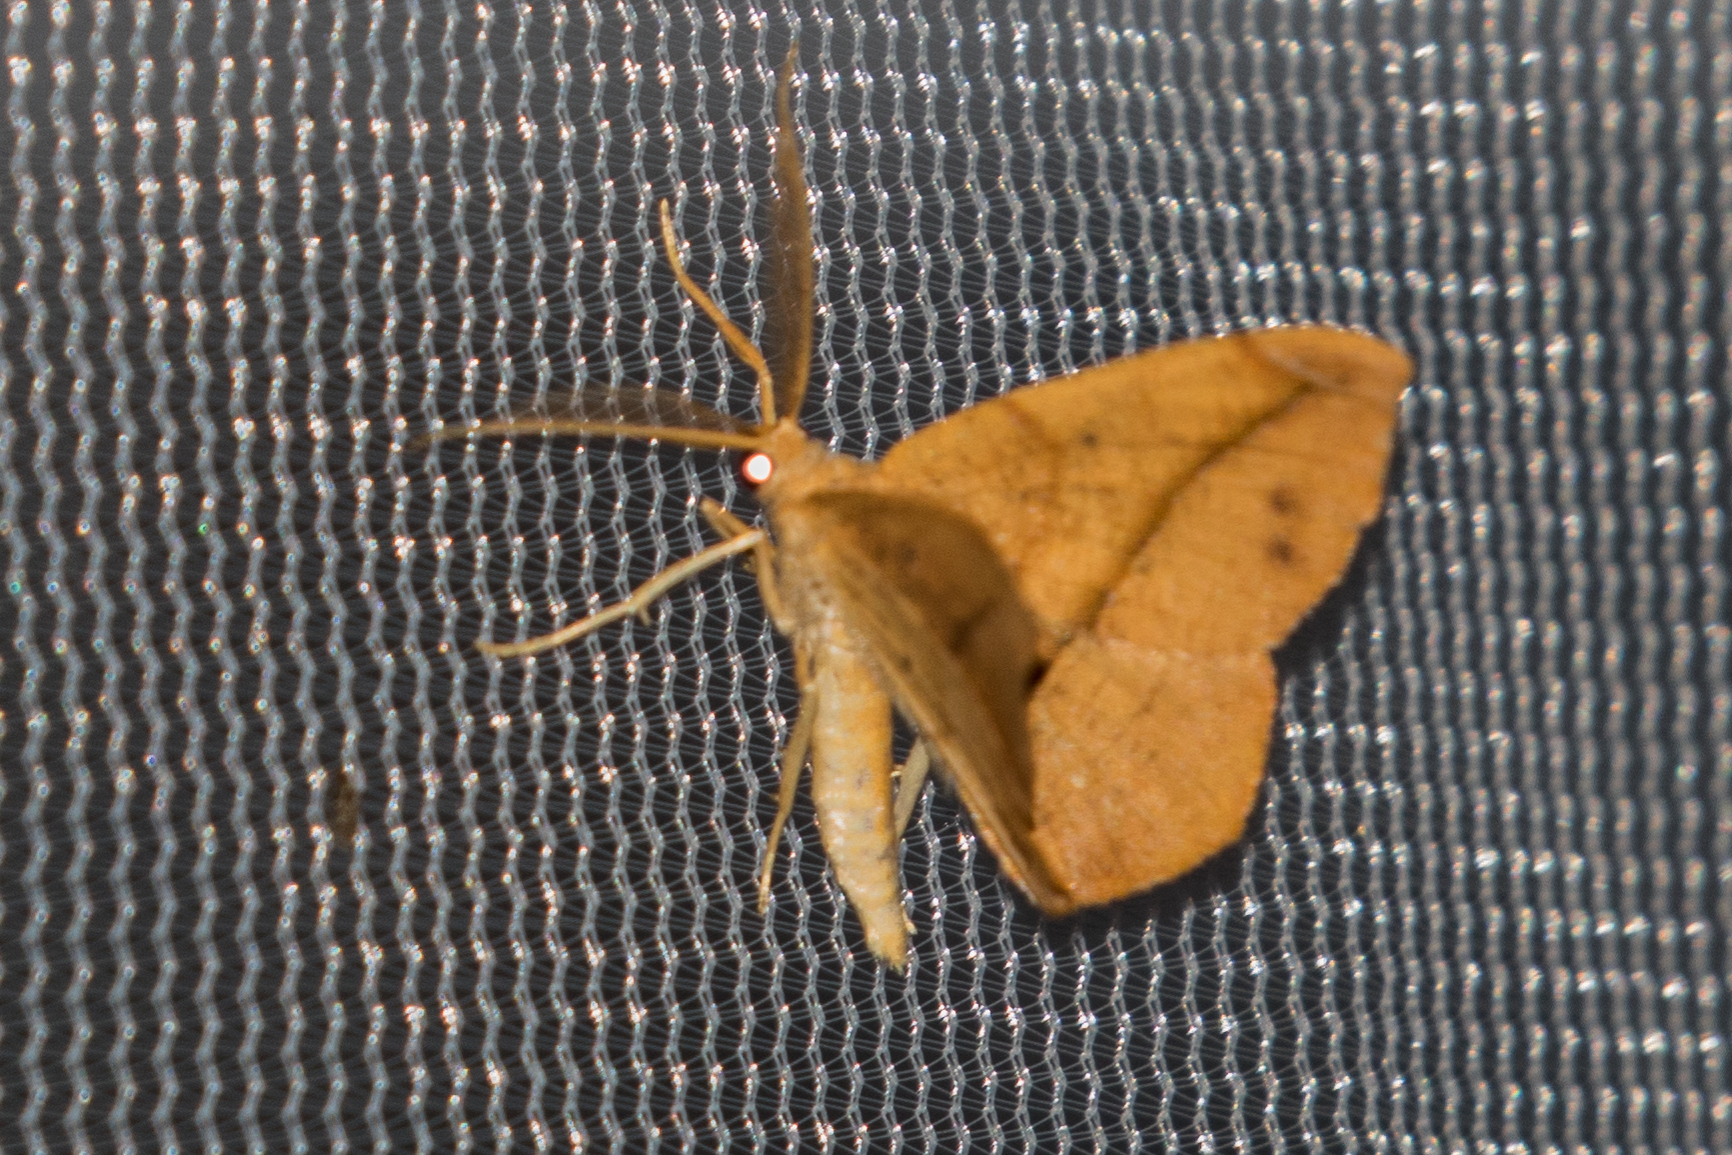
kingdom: Animalia
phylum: Arthropoda
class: Insecta
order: Lepidoptera
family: Geometridae
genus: Patalene
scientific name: Patalene olyzonaria
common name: Juniper geometer moth
